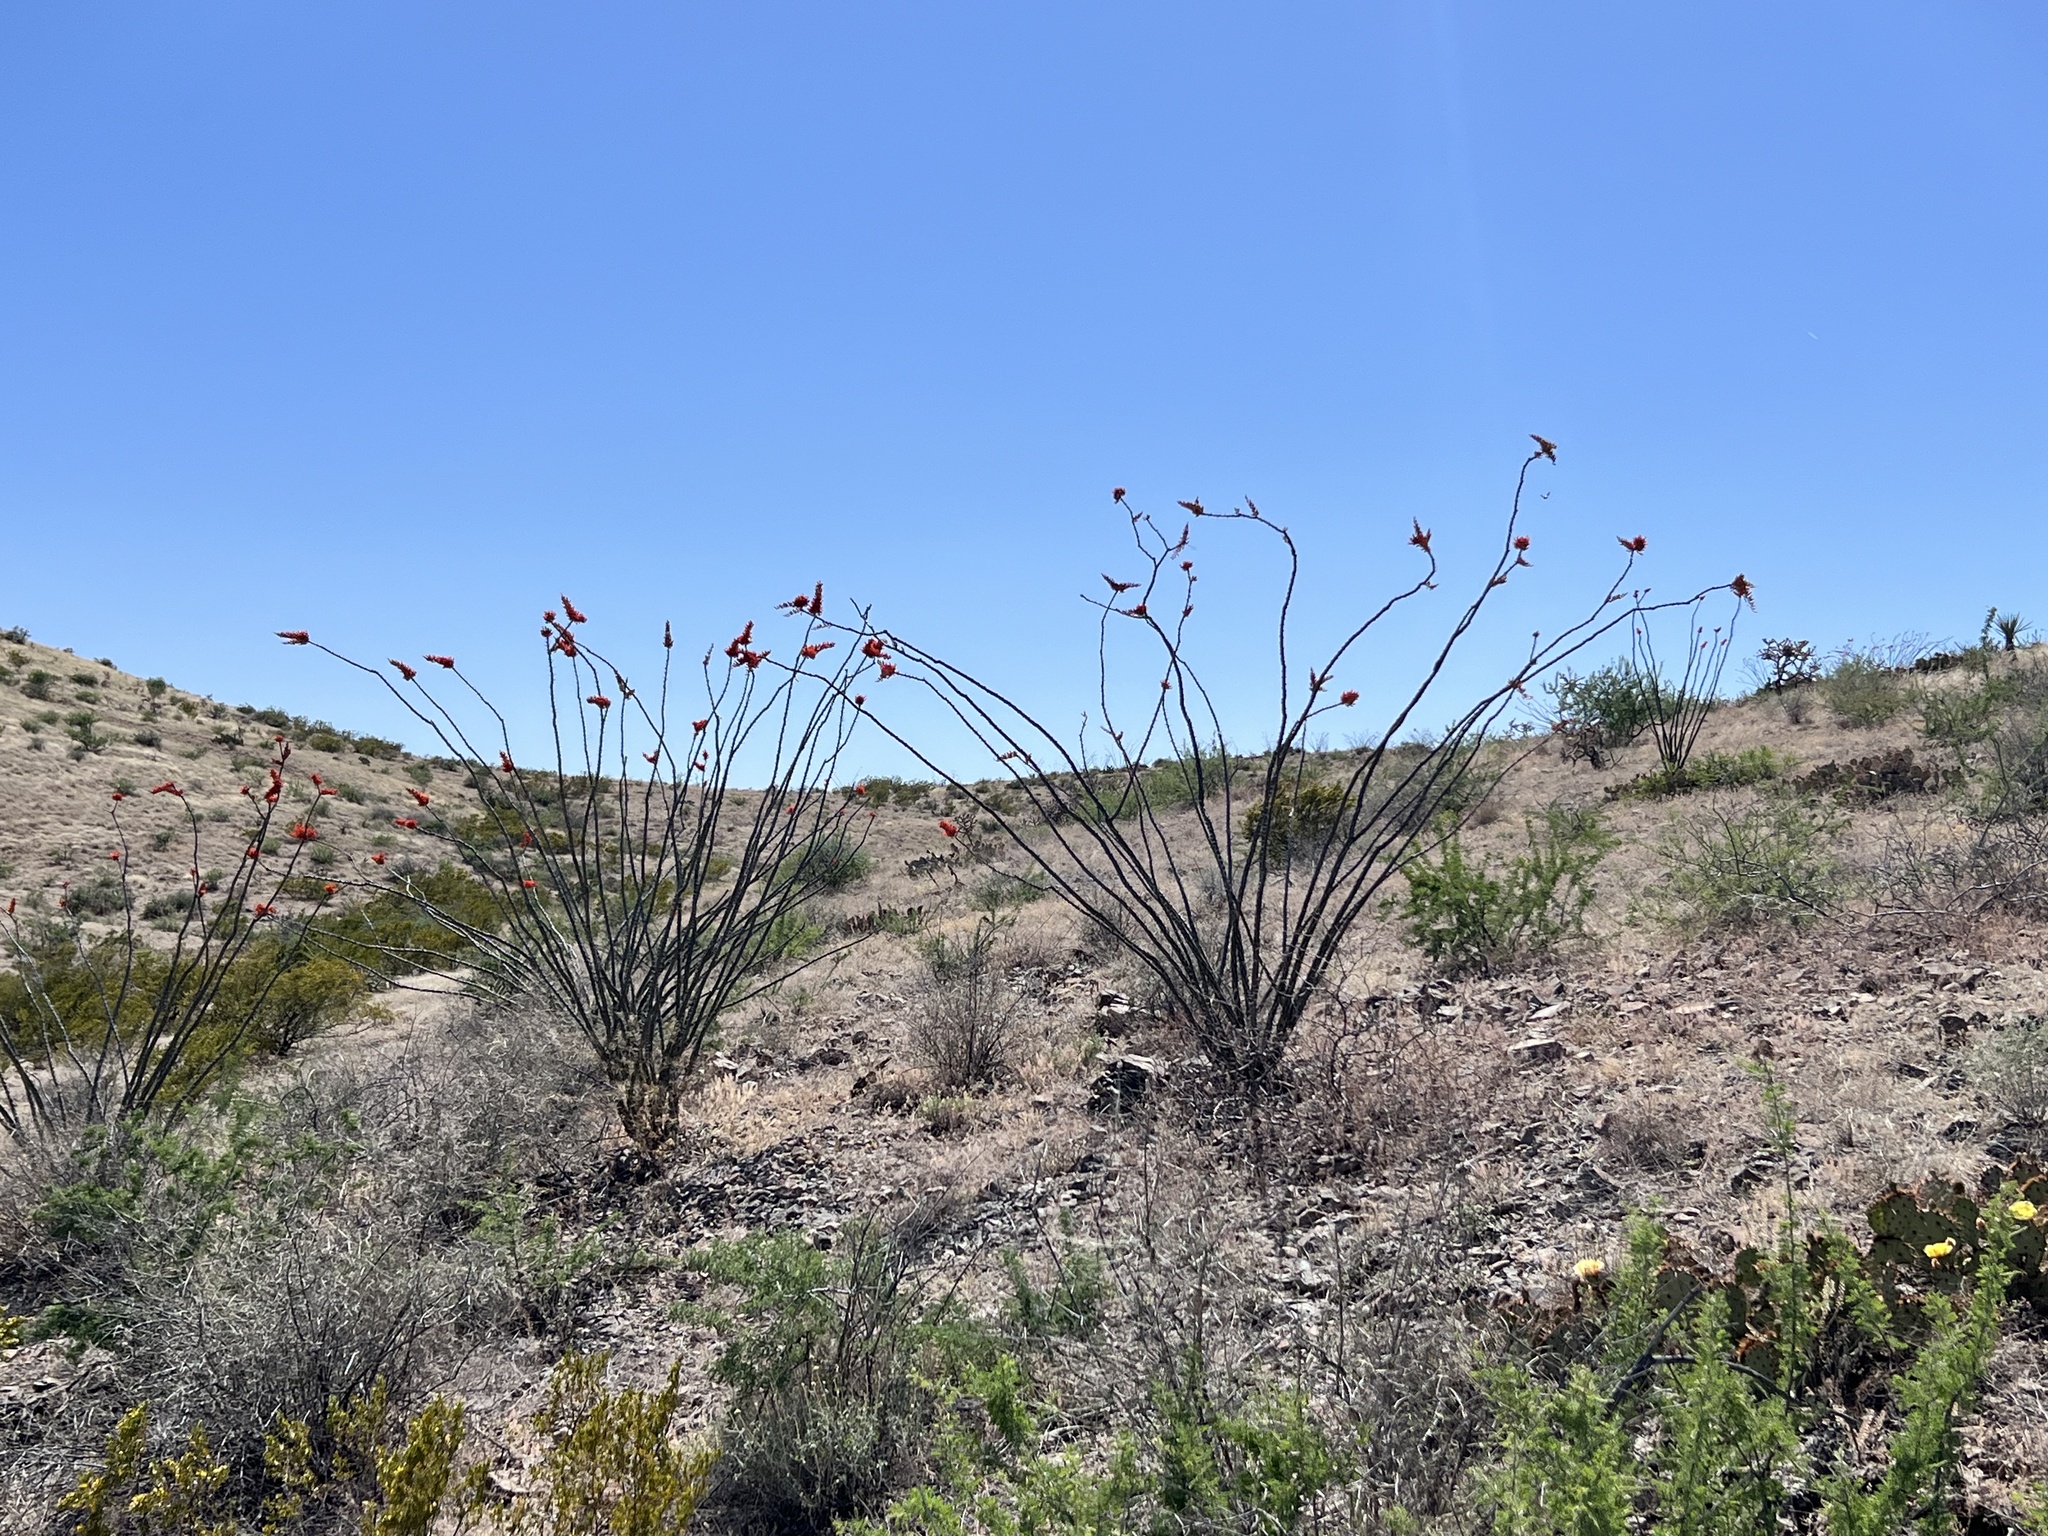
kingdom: Plantae
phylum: Tracheophyta
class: Magnoliopsida
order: Ericales
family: Fouquieriaceae
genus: Fouquieria
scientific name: Fouquieria splendens
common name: Vine-cactus
